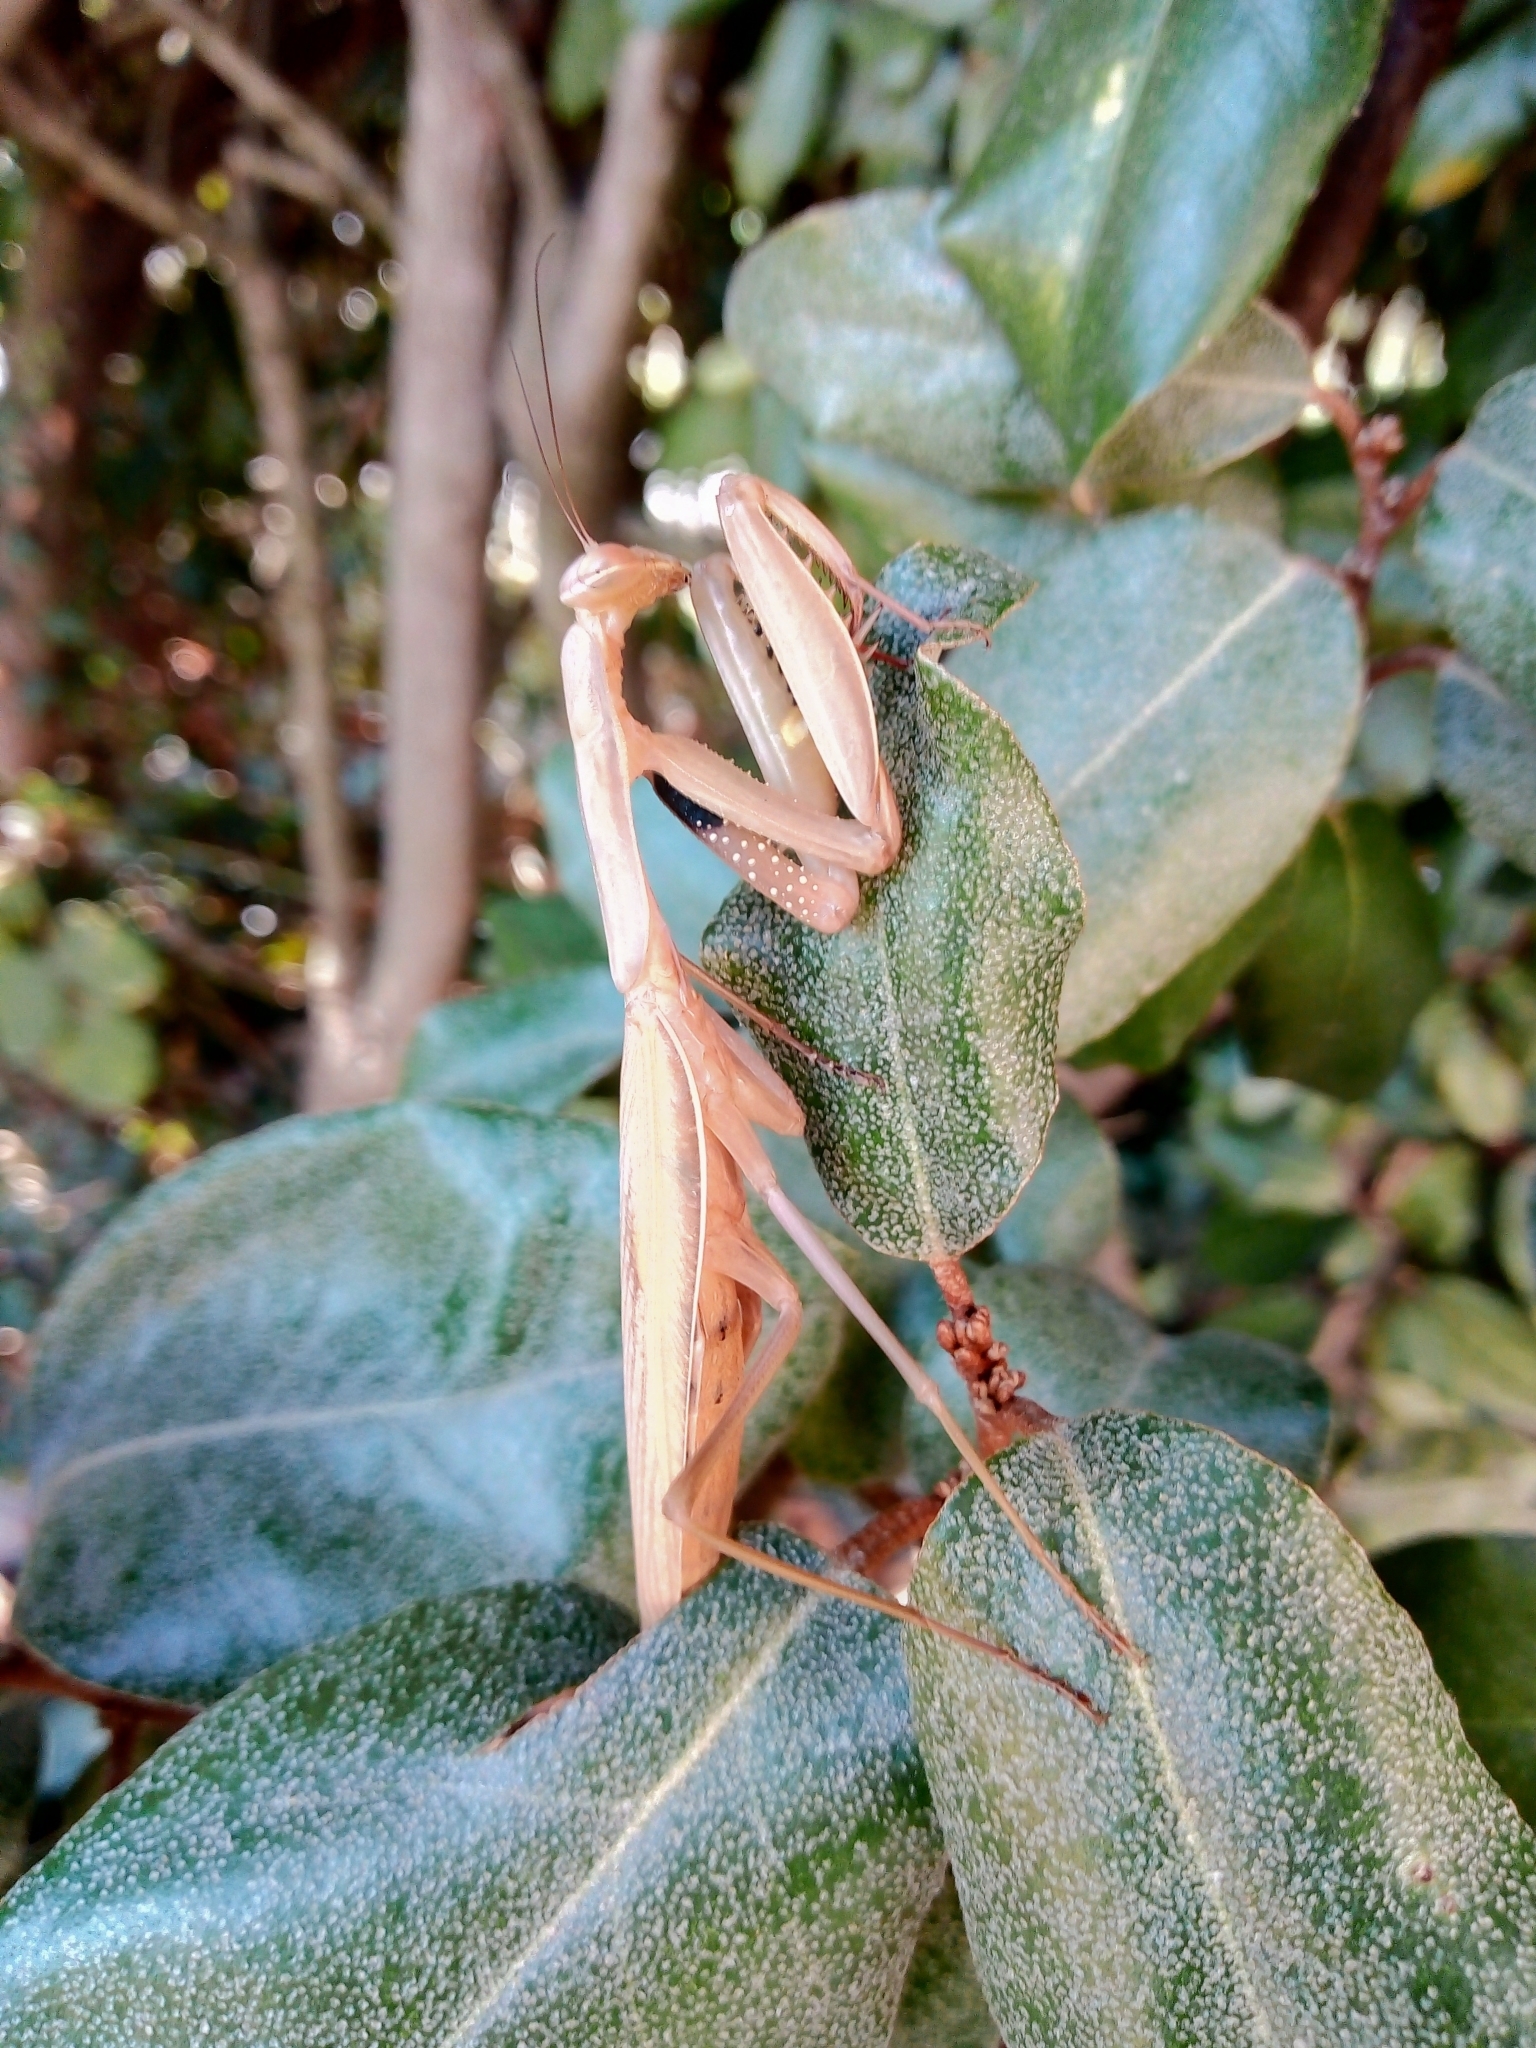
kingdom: Animalia
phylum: Arthropoda
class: Insecta
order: Mantodea
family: Mantidae
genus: Mantis
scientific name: Mantis religiosa
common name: Praying mantis
